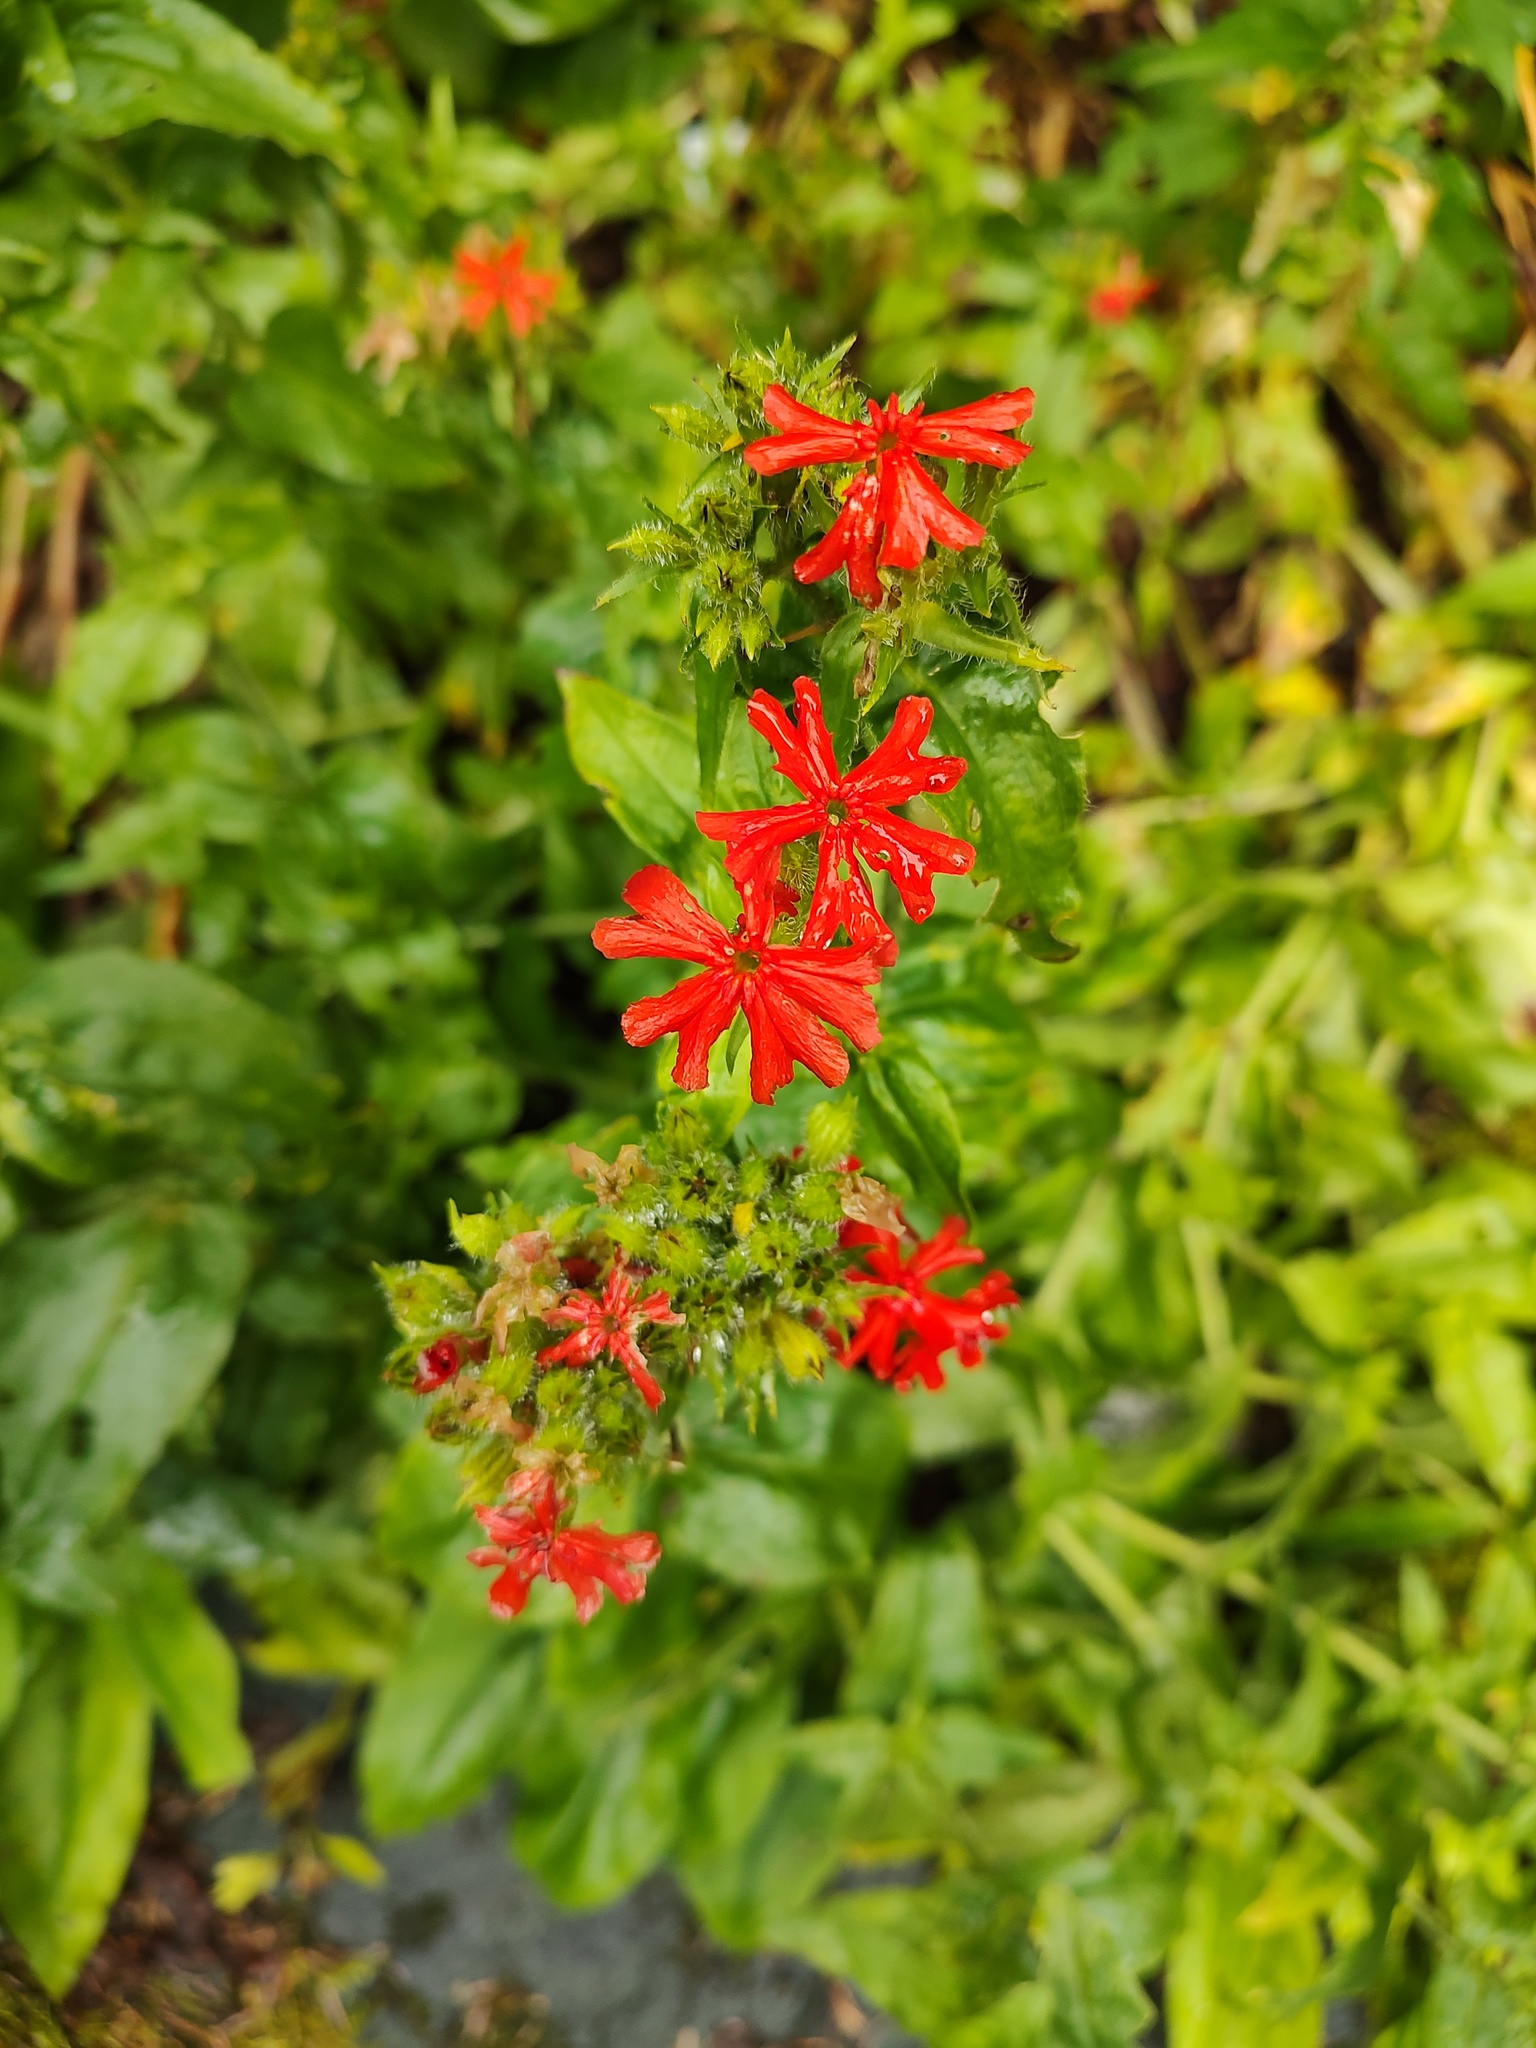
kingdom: Plantae
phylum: Tracheophyta
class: Magnoliopsida
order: Caryophyllales
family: Caryophyllaceae
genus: Silene
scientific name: Silene chalcedonica
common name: Maltese-cross
